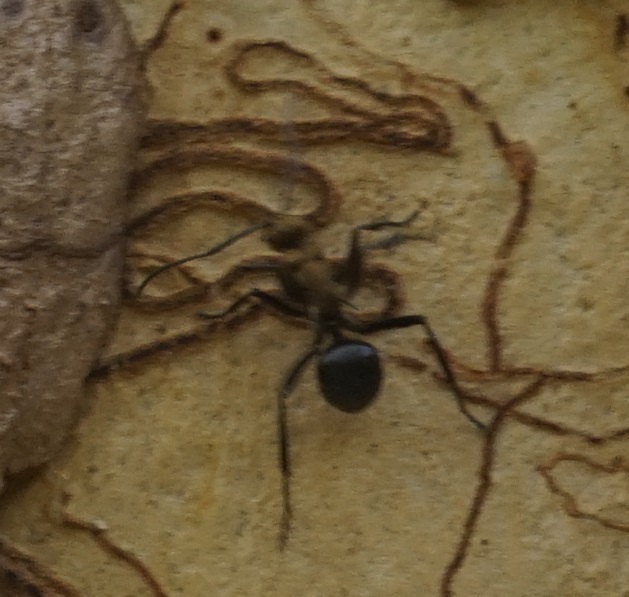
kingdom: Animalia
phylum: Arthropoda
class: Insecta
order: Hymenoptera
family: Formicidae
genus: Polyrhachis
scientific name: Polyrhachis semiaurata
